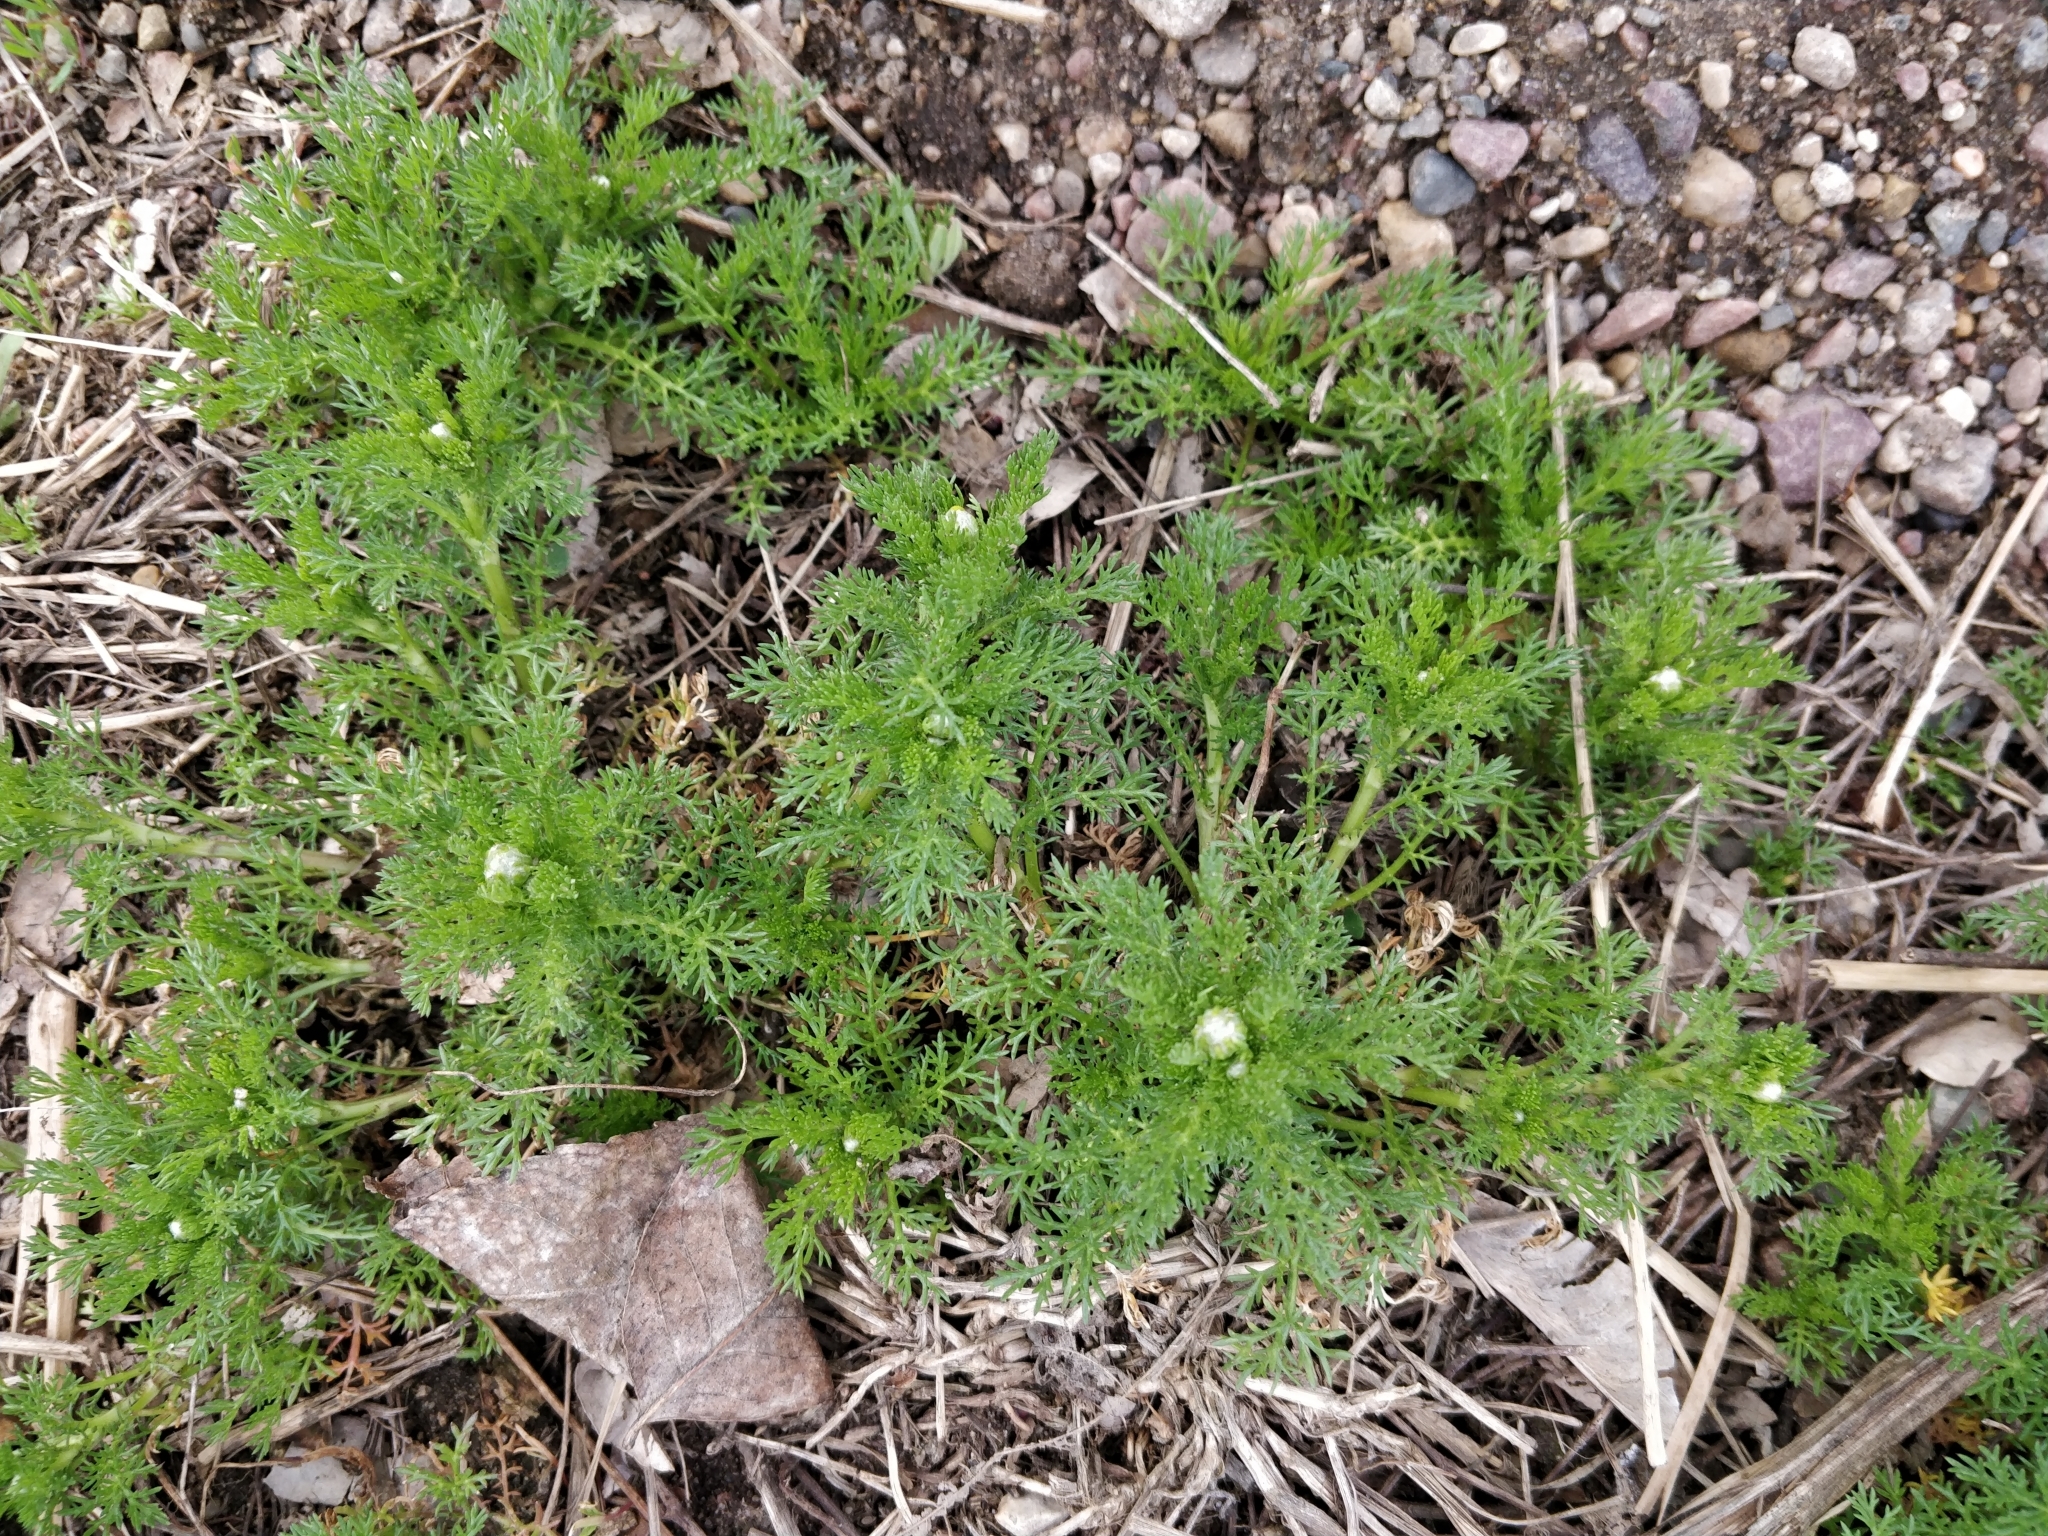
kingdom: Plantae
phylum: Tracheophyta
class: Magnoliopsida
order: Asterales
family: Asteraceae
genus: Matricaria
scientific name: Matricaria discoidea
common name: Disc mayweed
